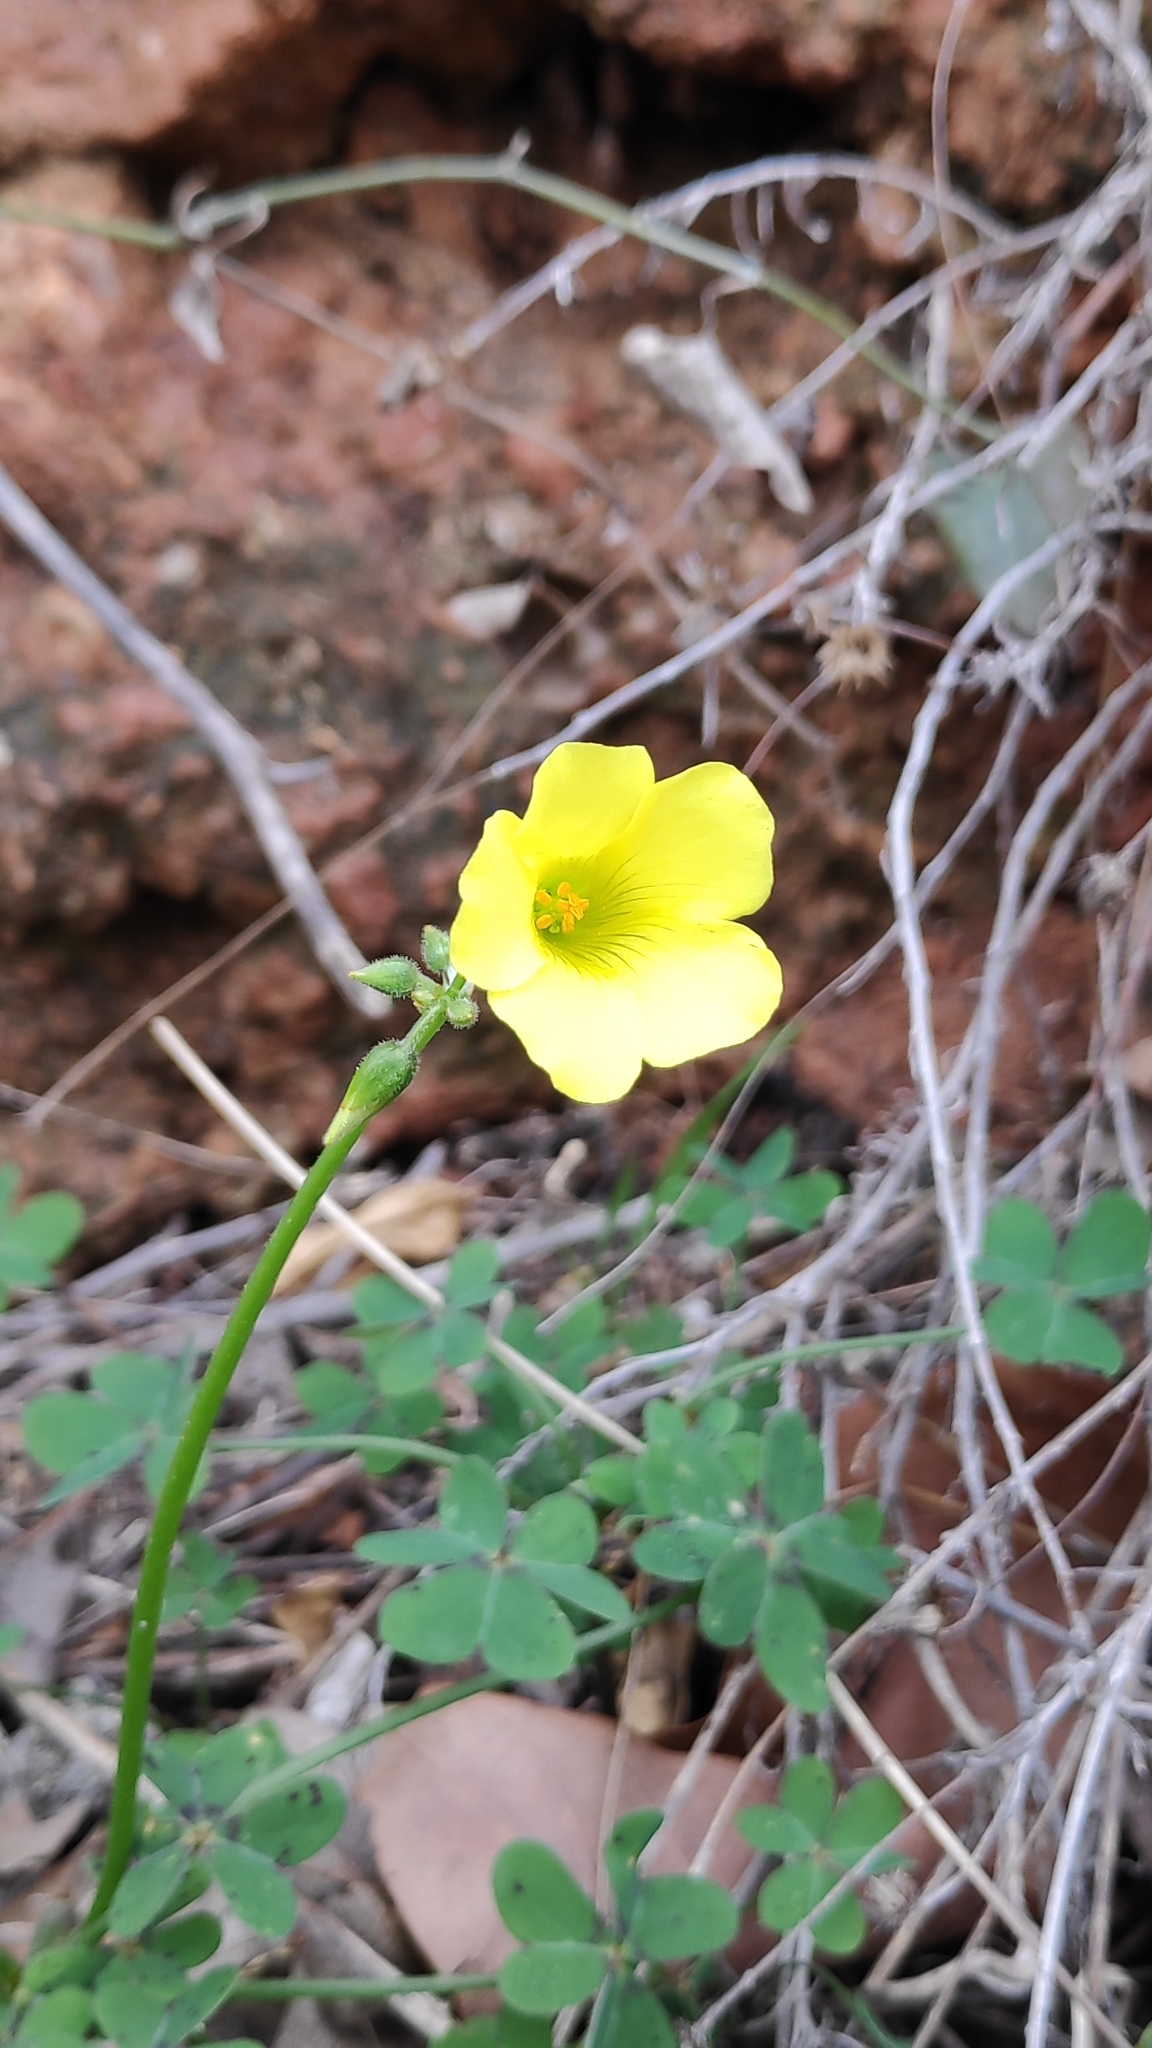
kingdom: Plantae
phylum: Tracheophyta
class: Magnoliopsida
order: Oxalidales
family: Oxalidaceae
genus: Oxalis
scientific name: Oxalis pes-caprae
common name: Bermuda-buttercup
